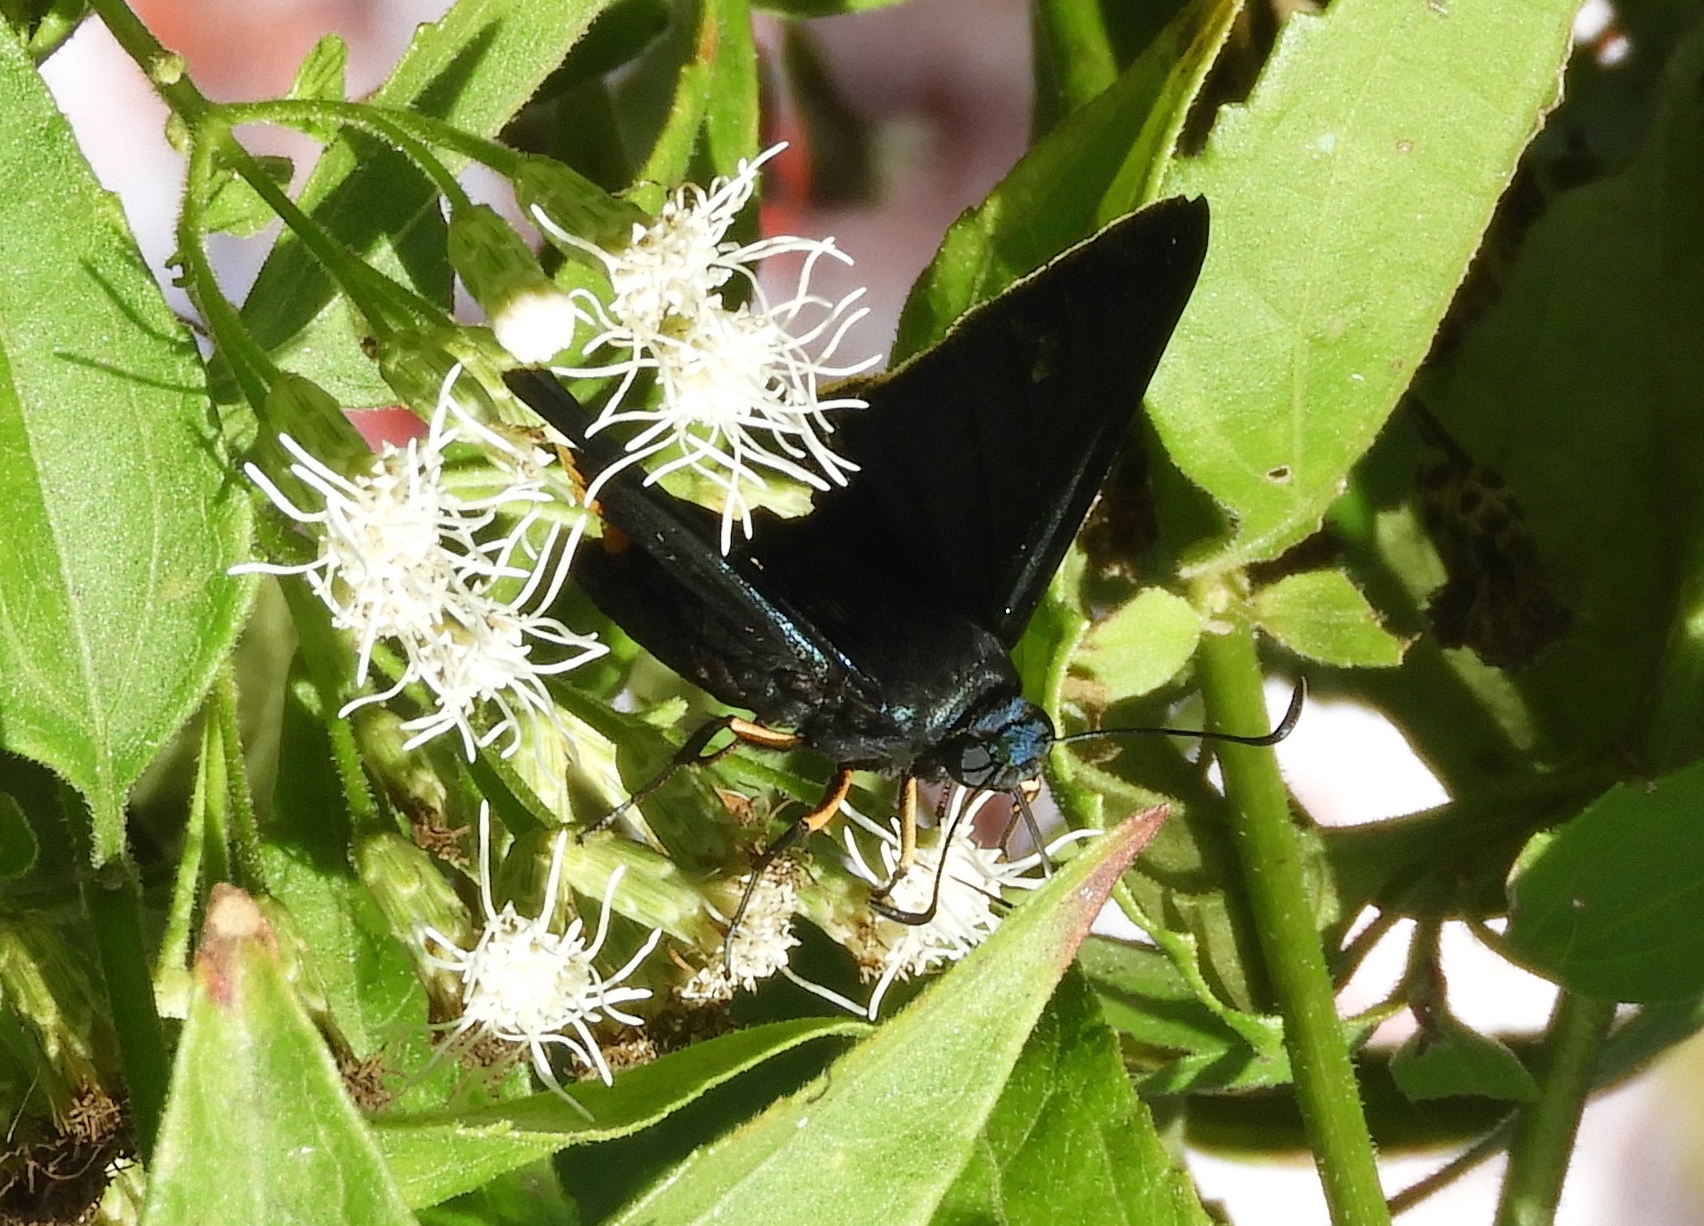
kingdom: Animalia
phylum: Arthropoda
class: Insecta
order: Lepidoptera
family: Hesperiidae
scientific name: Hesperiidae
